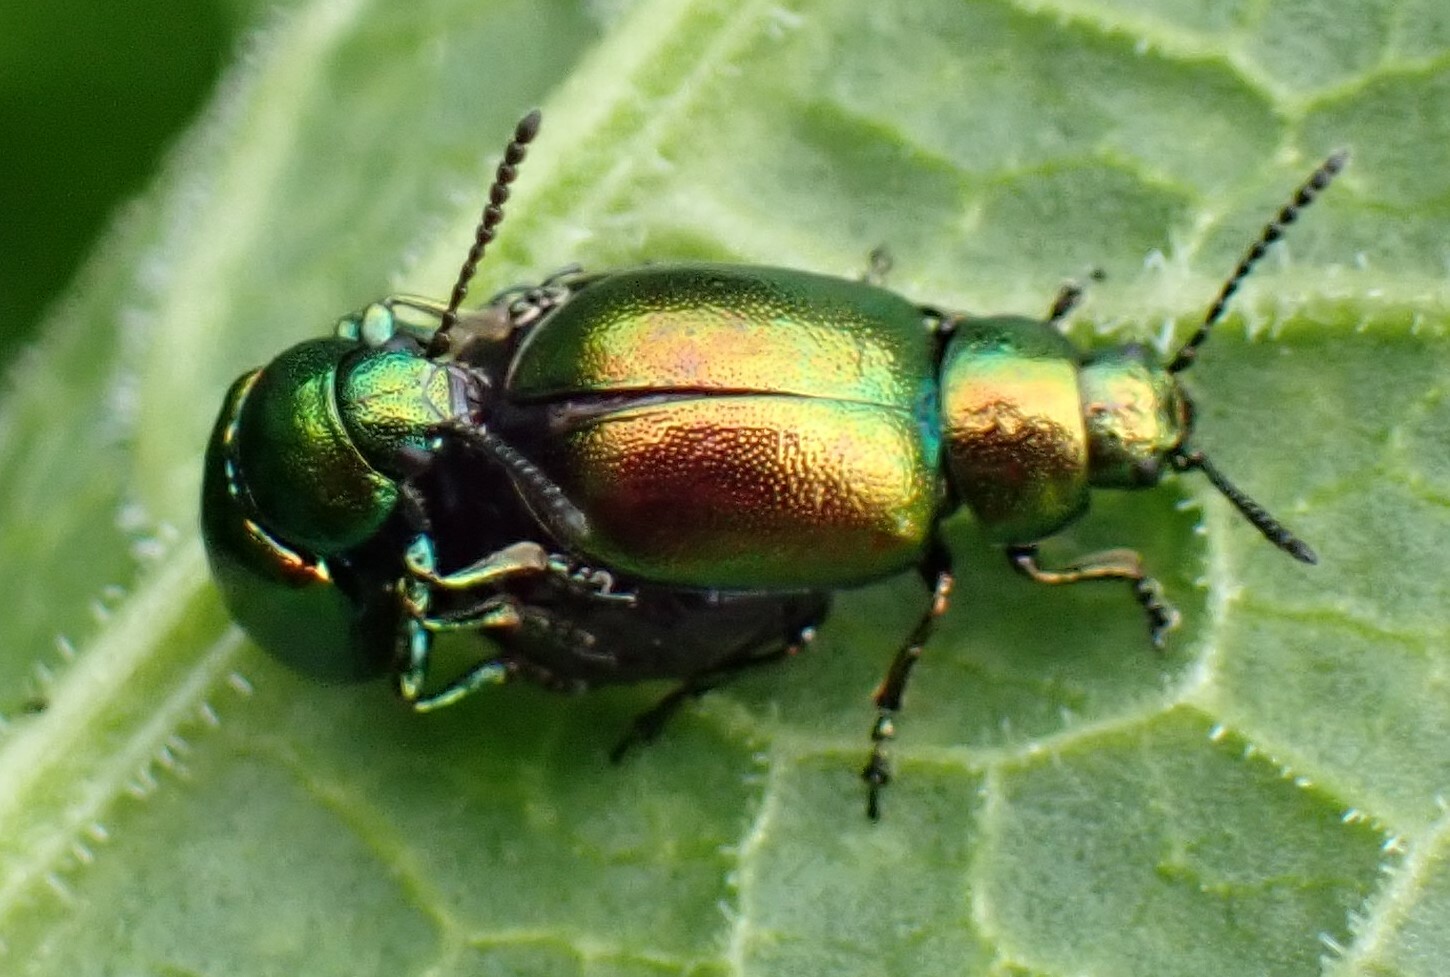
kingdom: Animalia
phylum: Arthropoda
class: Insecta
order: Coleoptera
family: Chrysomelidae
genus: Gastrophysa
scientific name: Gastrophysa viridula
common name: Green dock beetle
